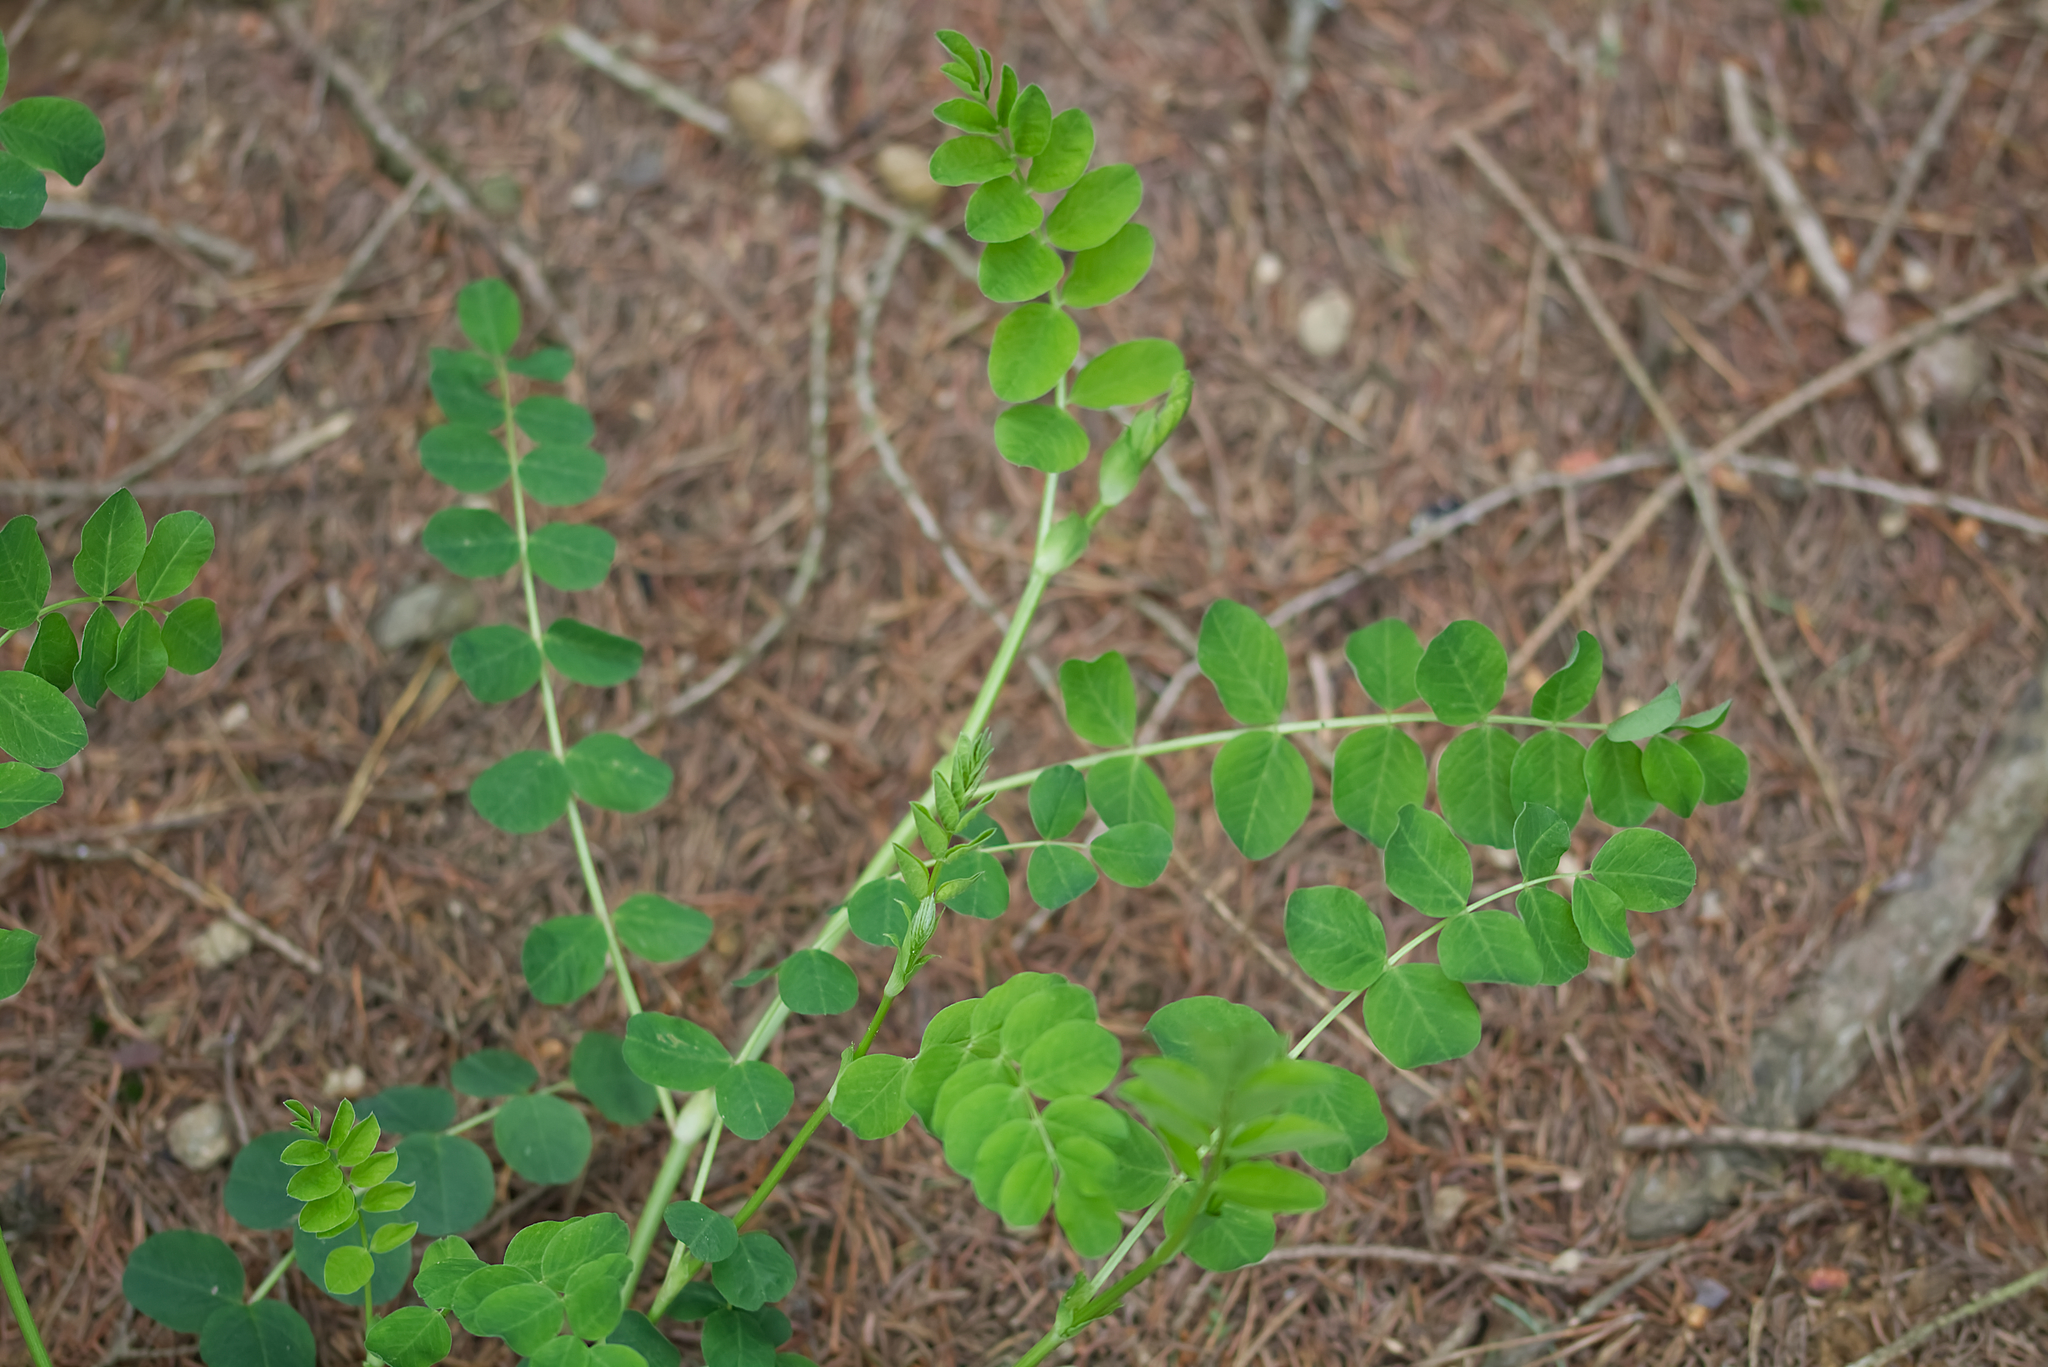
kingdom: Plantae
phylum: Tracheophyta
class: Magnoliopsida
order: Fabales
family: Fabaceae
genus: Astragalus
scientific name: Astragalus glycyphyllos
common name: Wild liquorice
